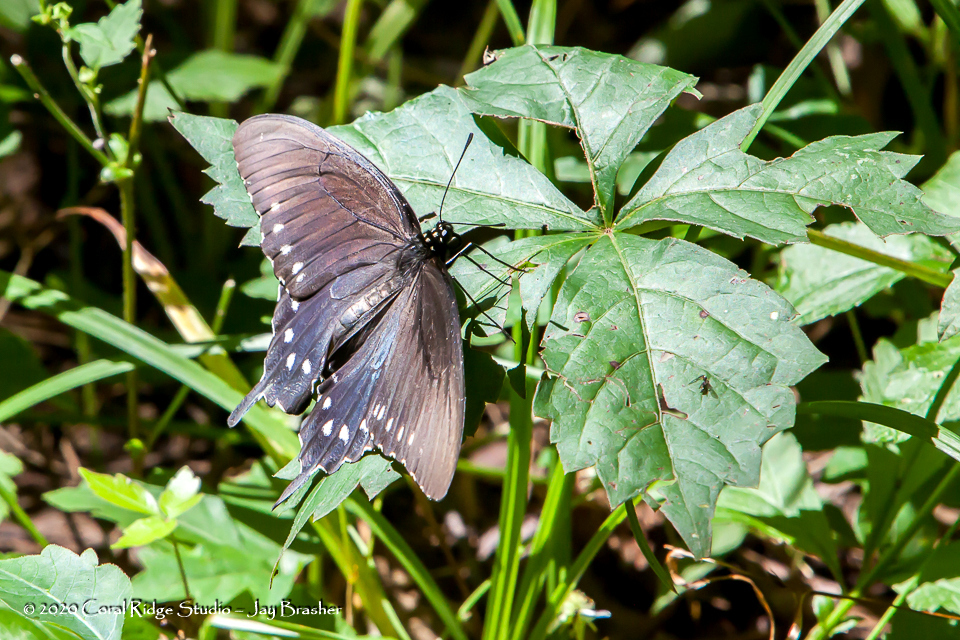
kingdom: Animalia
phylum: Arthropoda
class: Insecta
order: Lepidoptera
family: Papilionidae
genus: Battus
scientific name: Battus philenor
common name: Pipevine swallowtail
